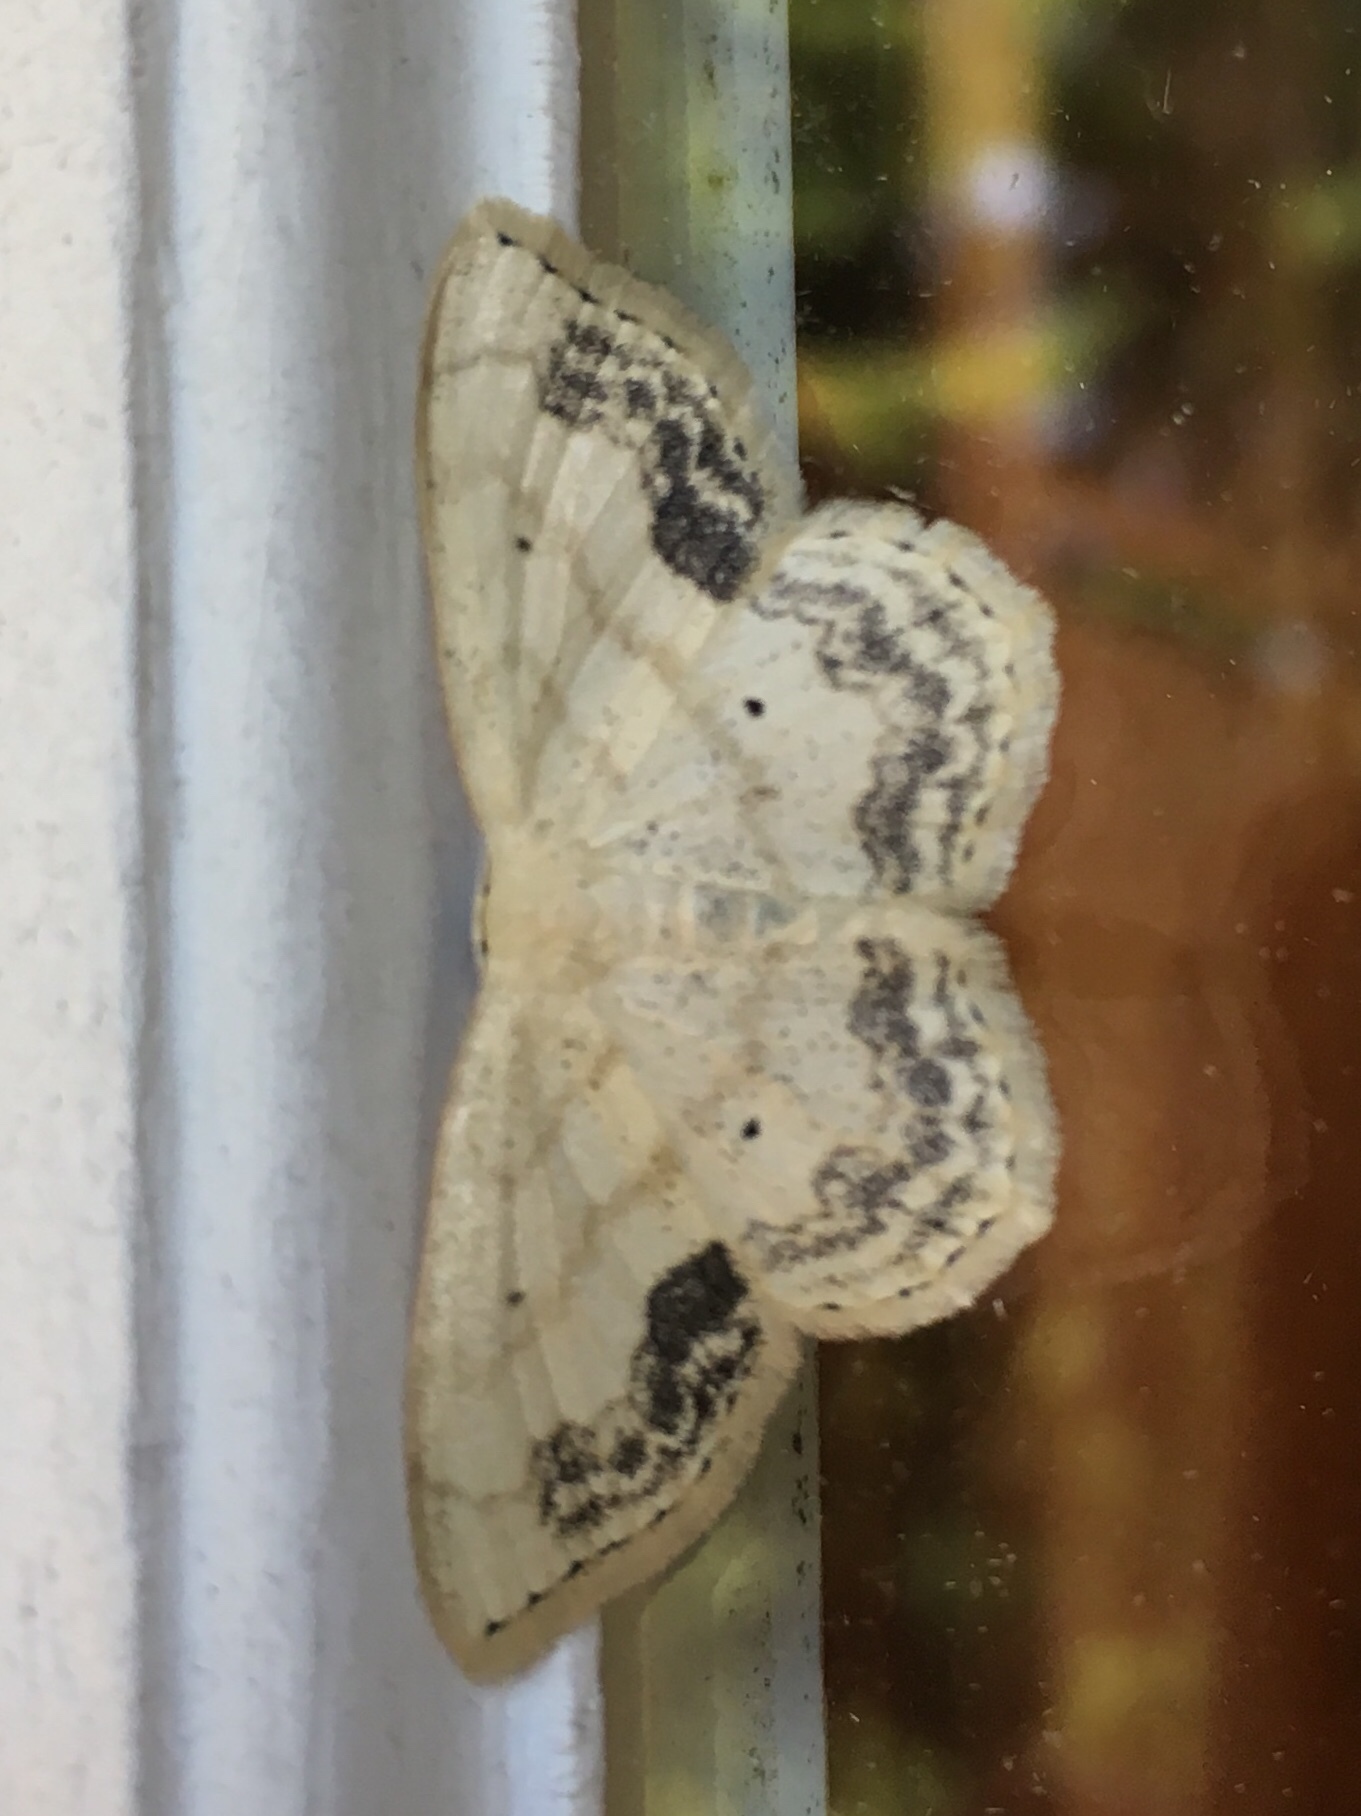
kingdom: Animalia
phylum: Arthropoda
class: Insecta
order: Lepidoptera
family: Geometridae
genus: Scopula
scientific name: Scopula limboundata
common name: Large lace border
